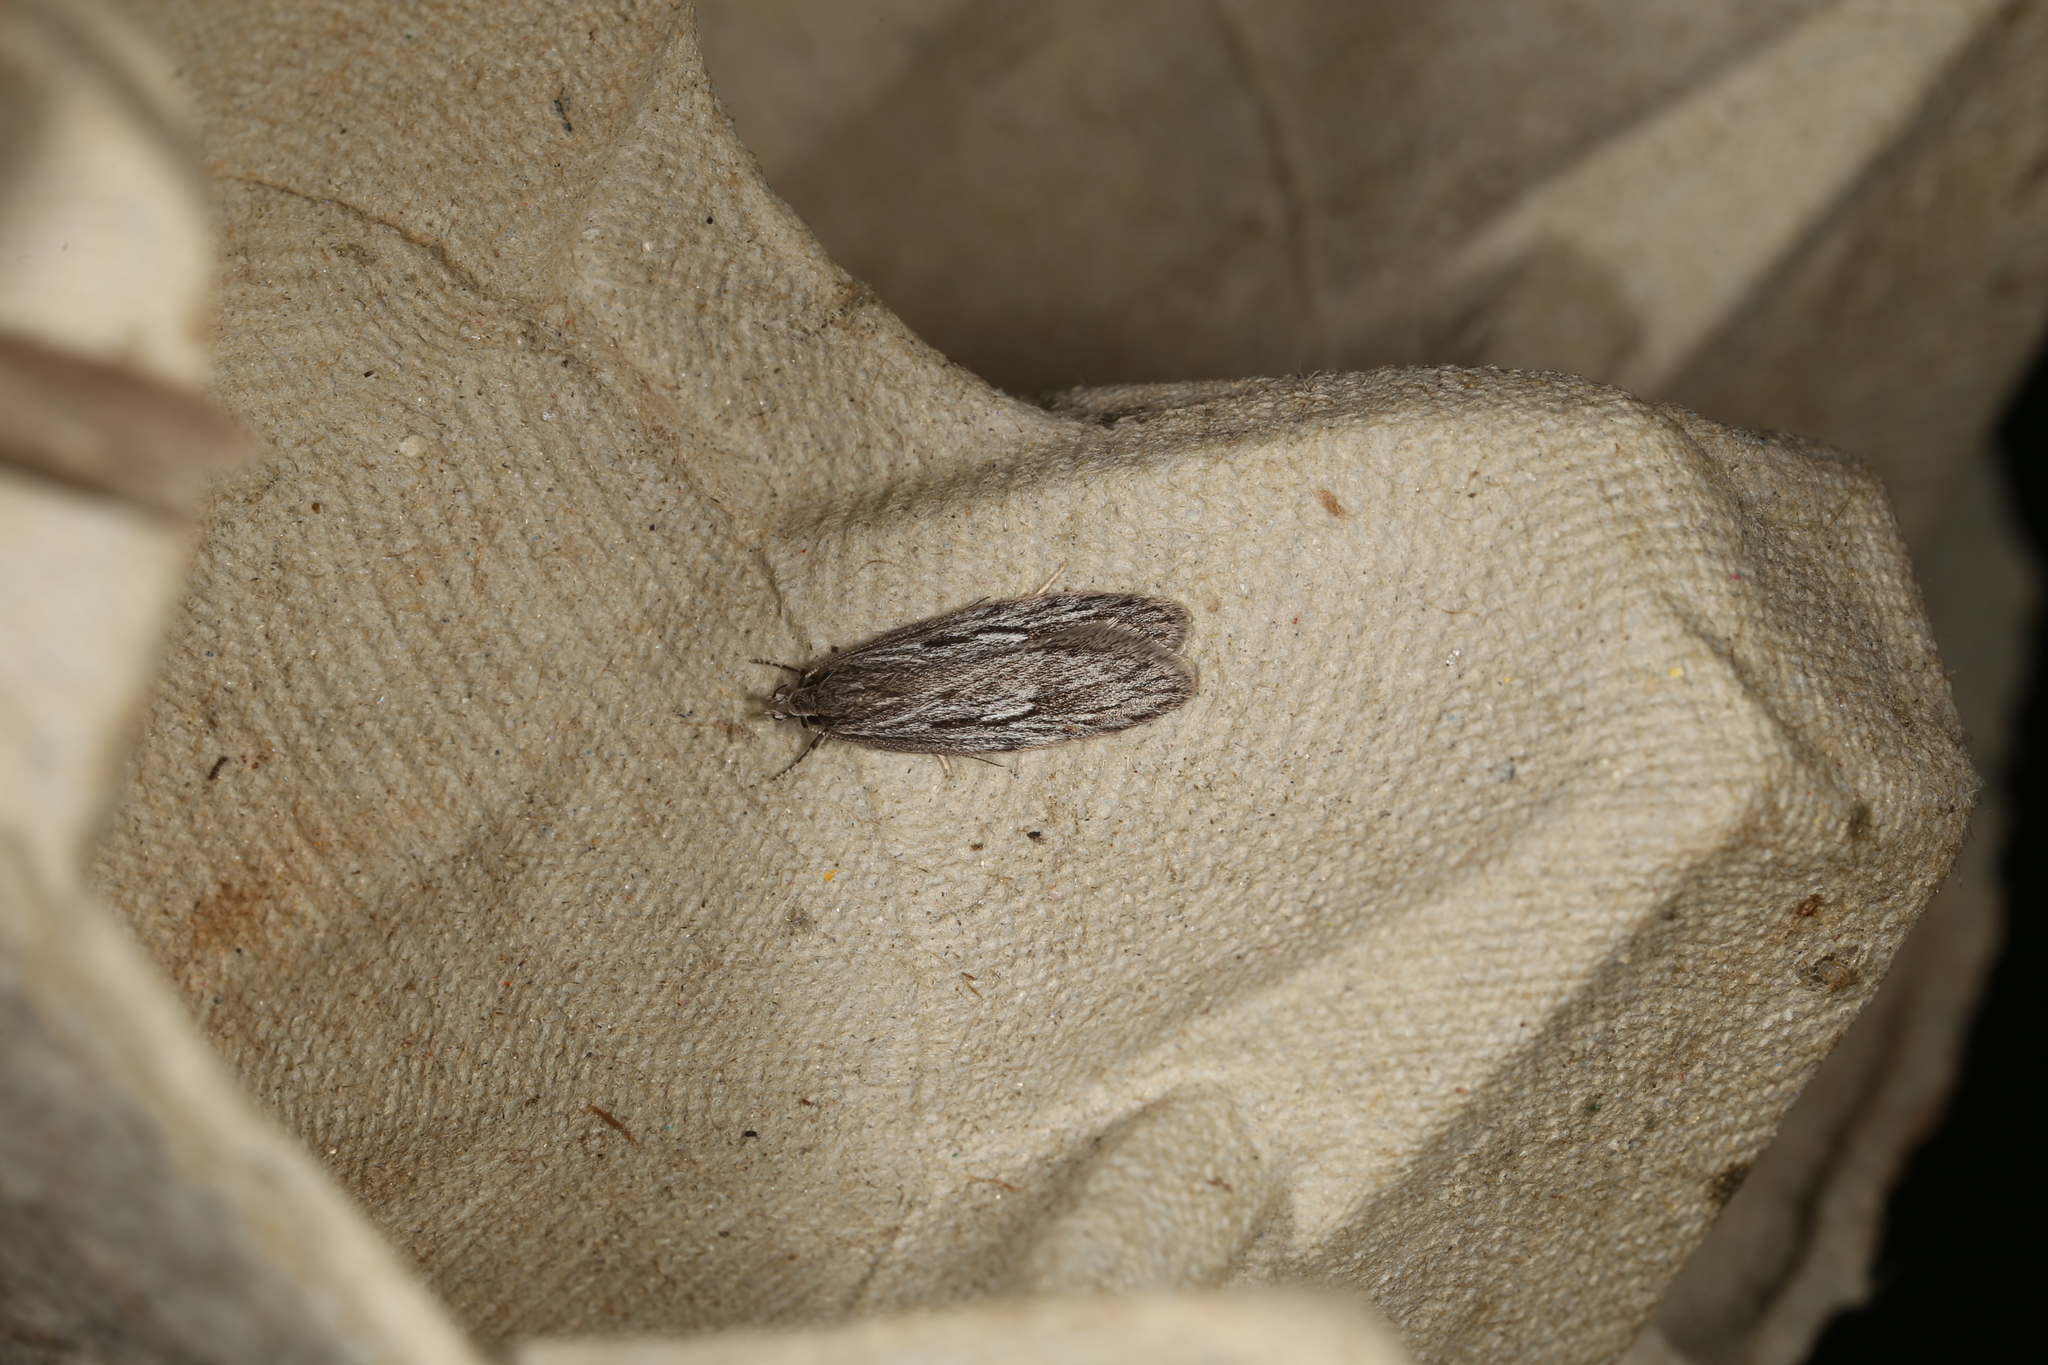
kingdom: Animalia
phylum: Arthropoda
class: Insecta
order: Lepidoptera
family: Oecophoridae
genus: Anomozancla
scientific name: Anomozancla scopariella
